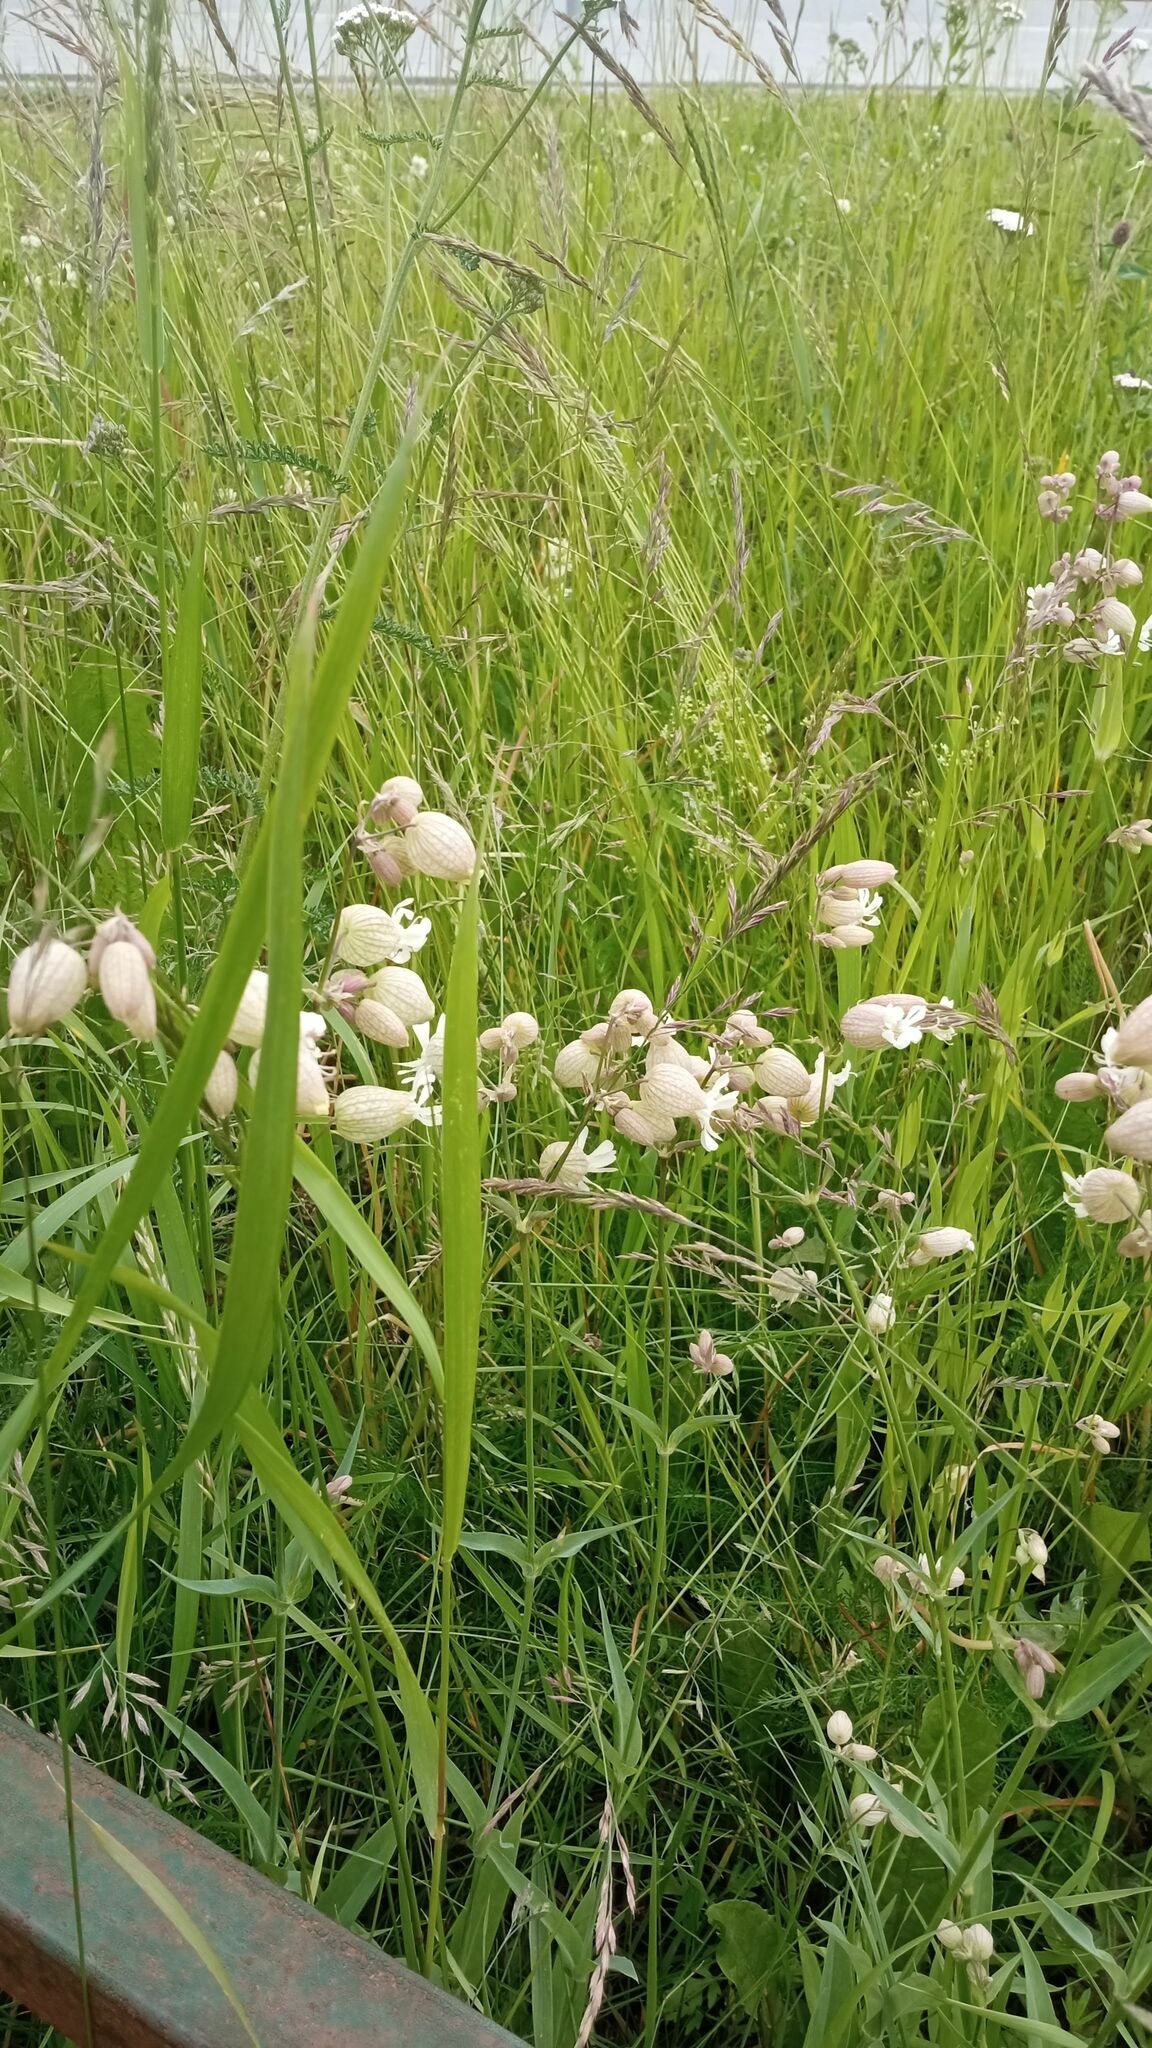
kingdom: Plantae
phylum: Tracheophyta
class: Magnoliopsida
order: Caryophyllales
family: Caryophyllaceae
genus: Silene
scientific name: Silene vulgaris
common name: Bladder campion
